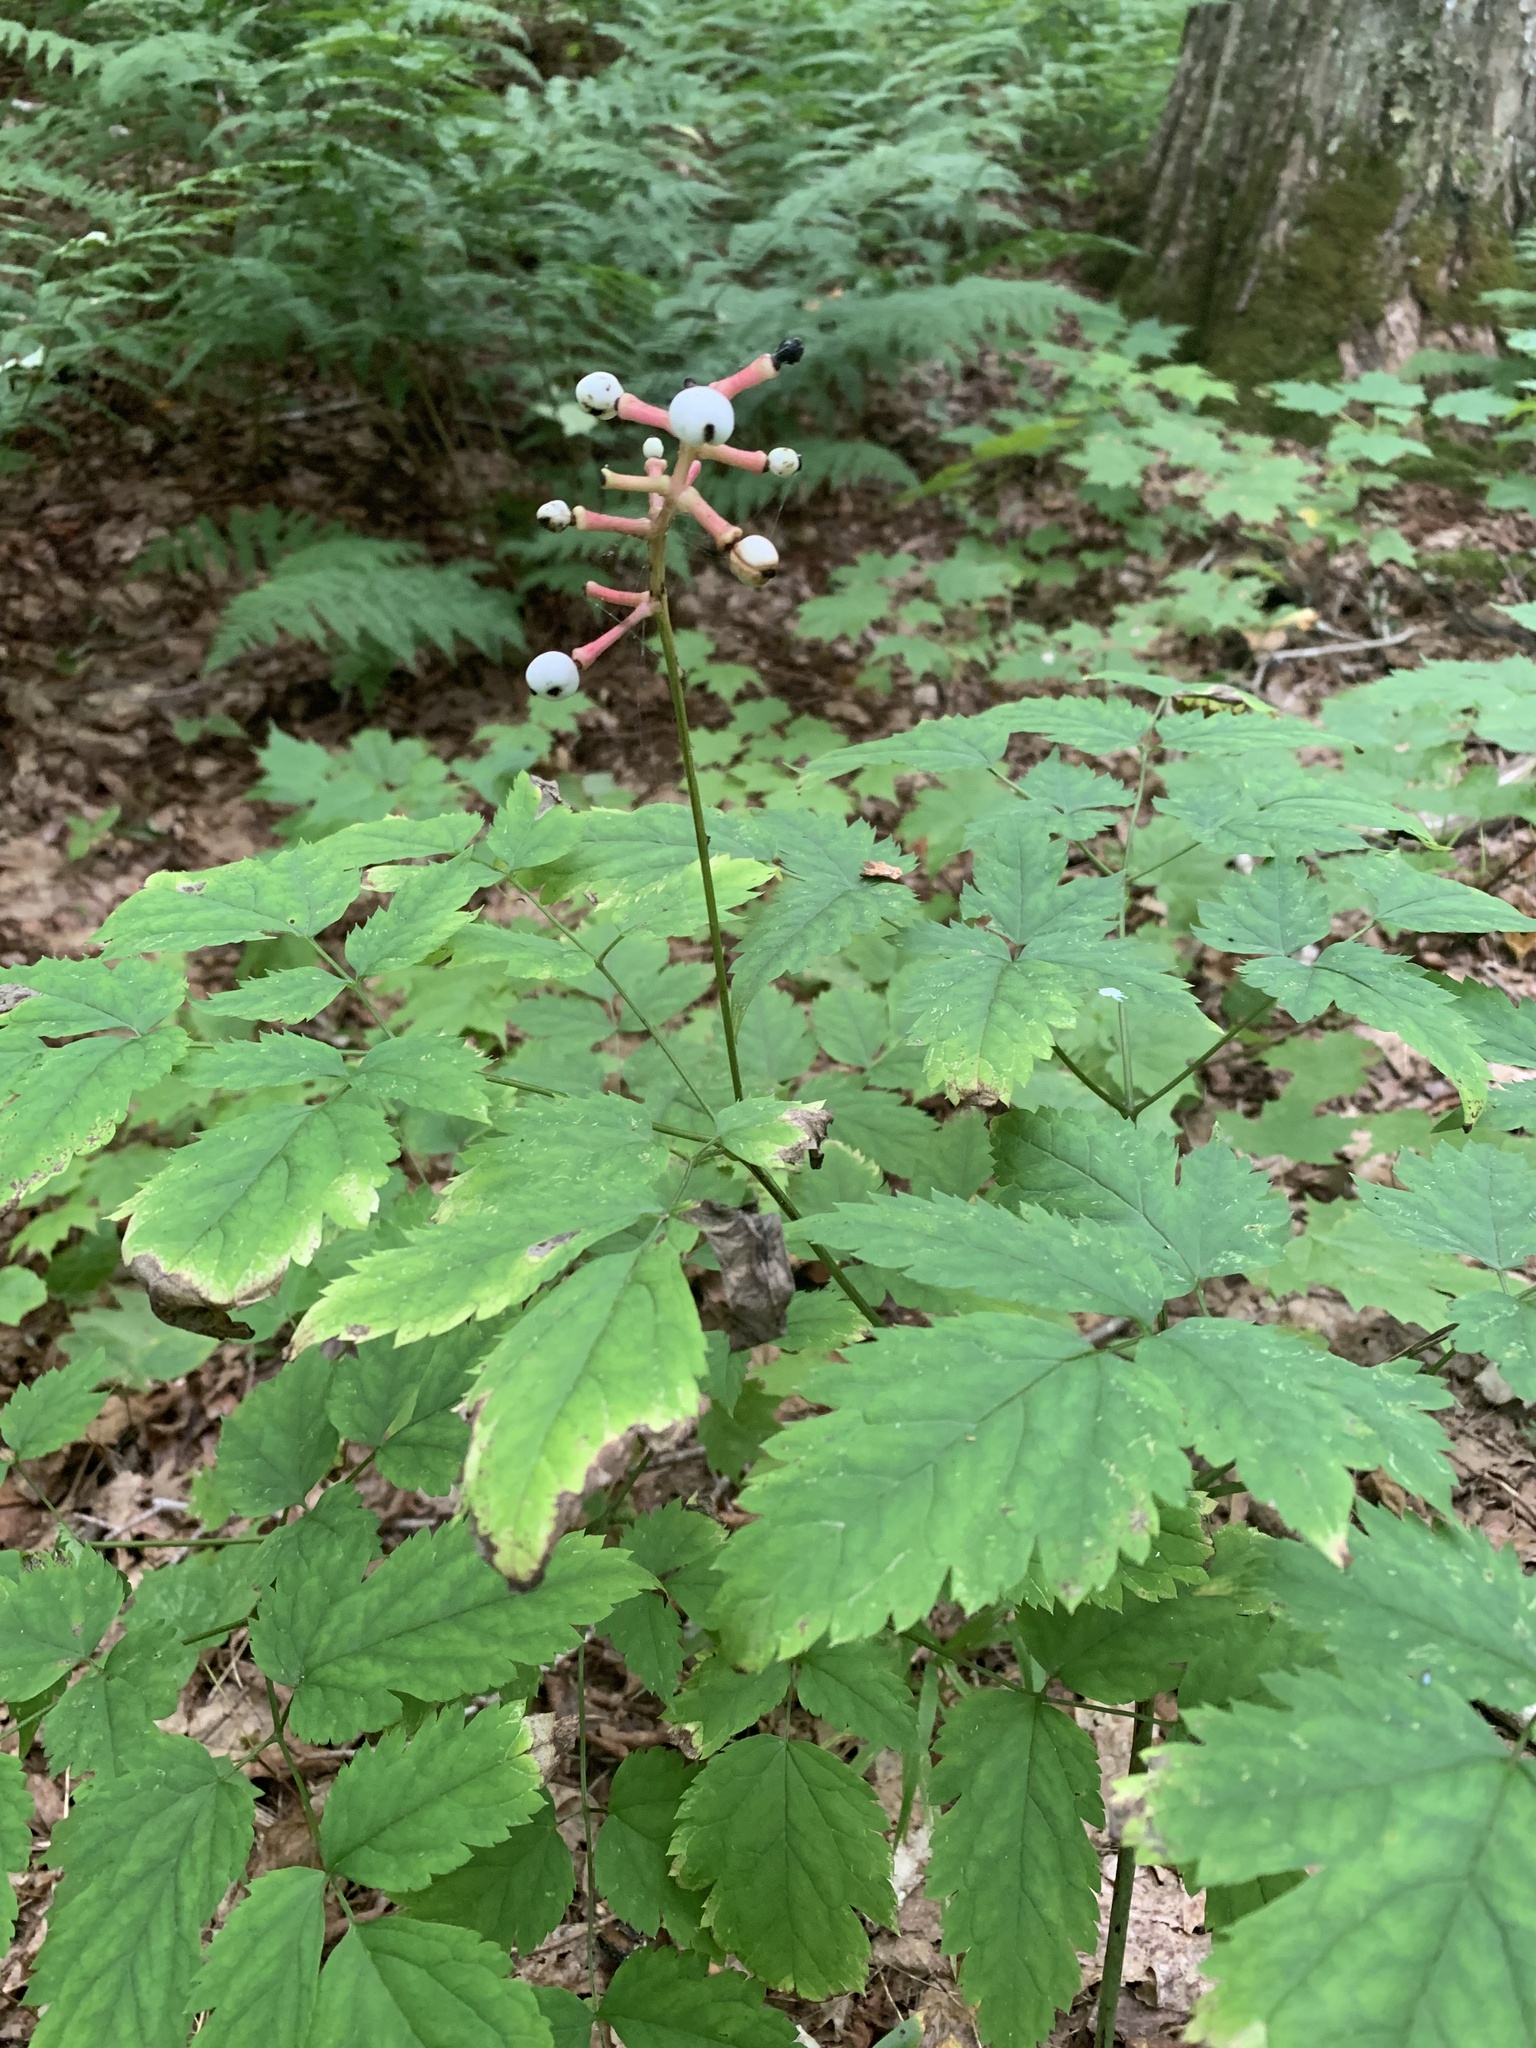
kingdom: Plantae
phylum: Tracheophyta
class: Magnoliopsida
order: Ranunculales
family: Ranunculaceae
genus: Actaea
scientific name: Actaea pachypoda
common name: Doll's-eyes
